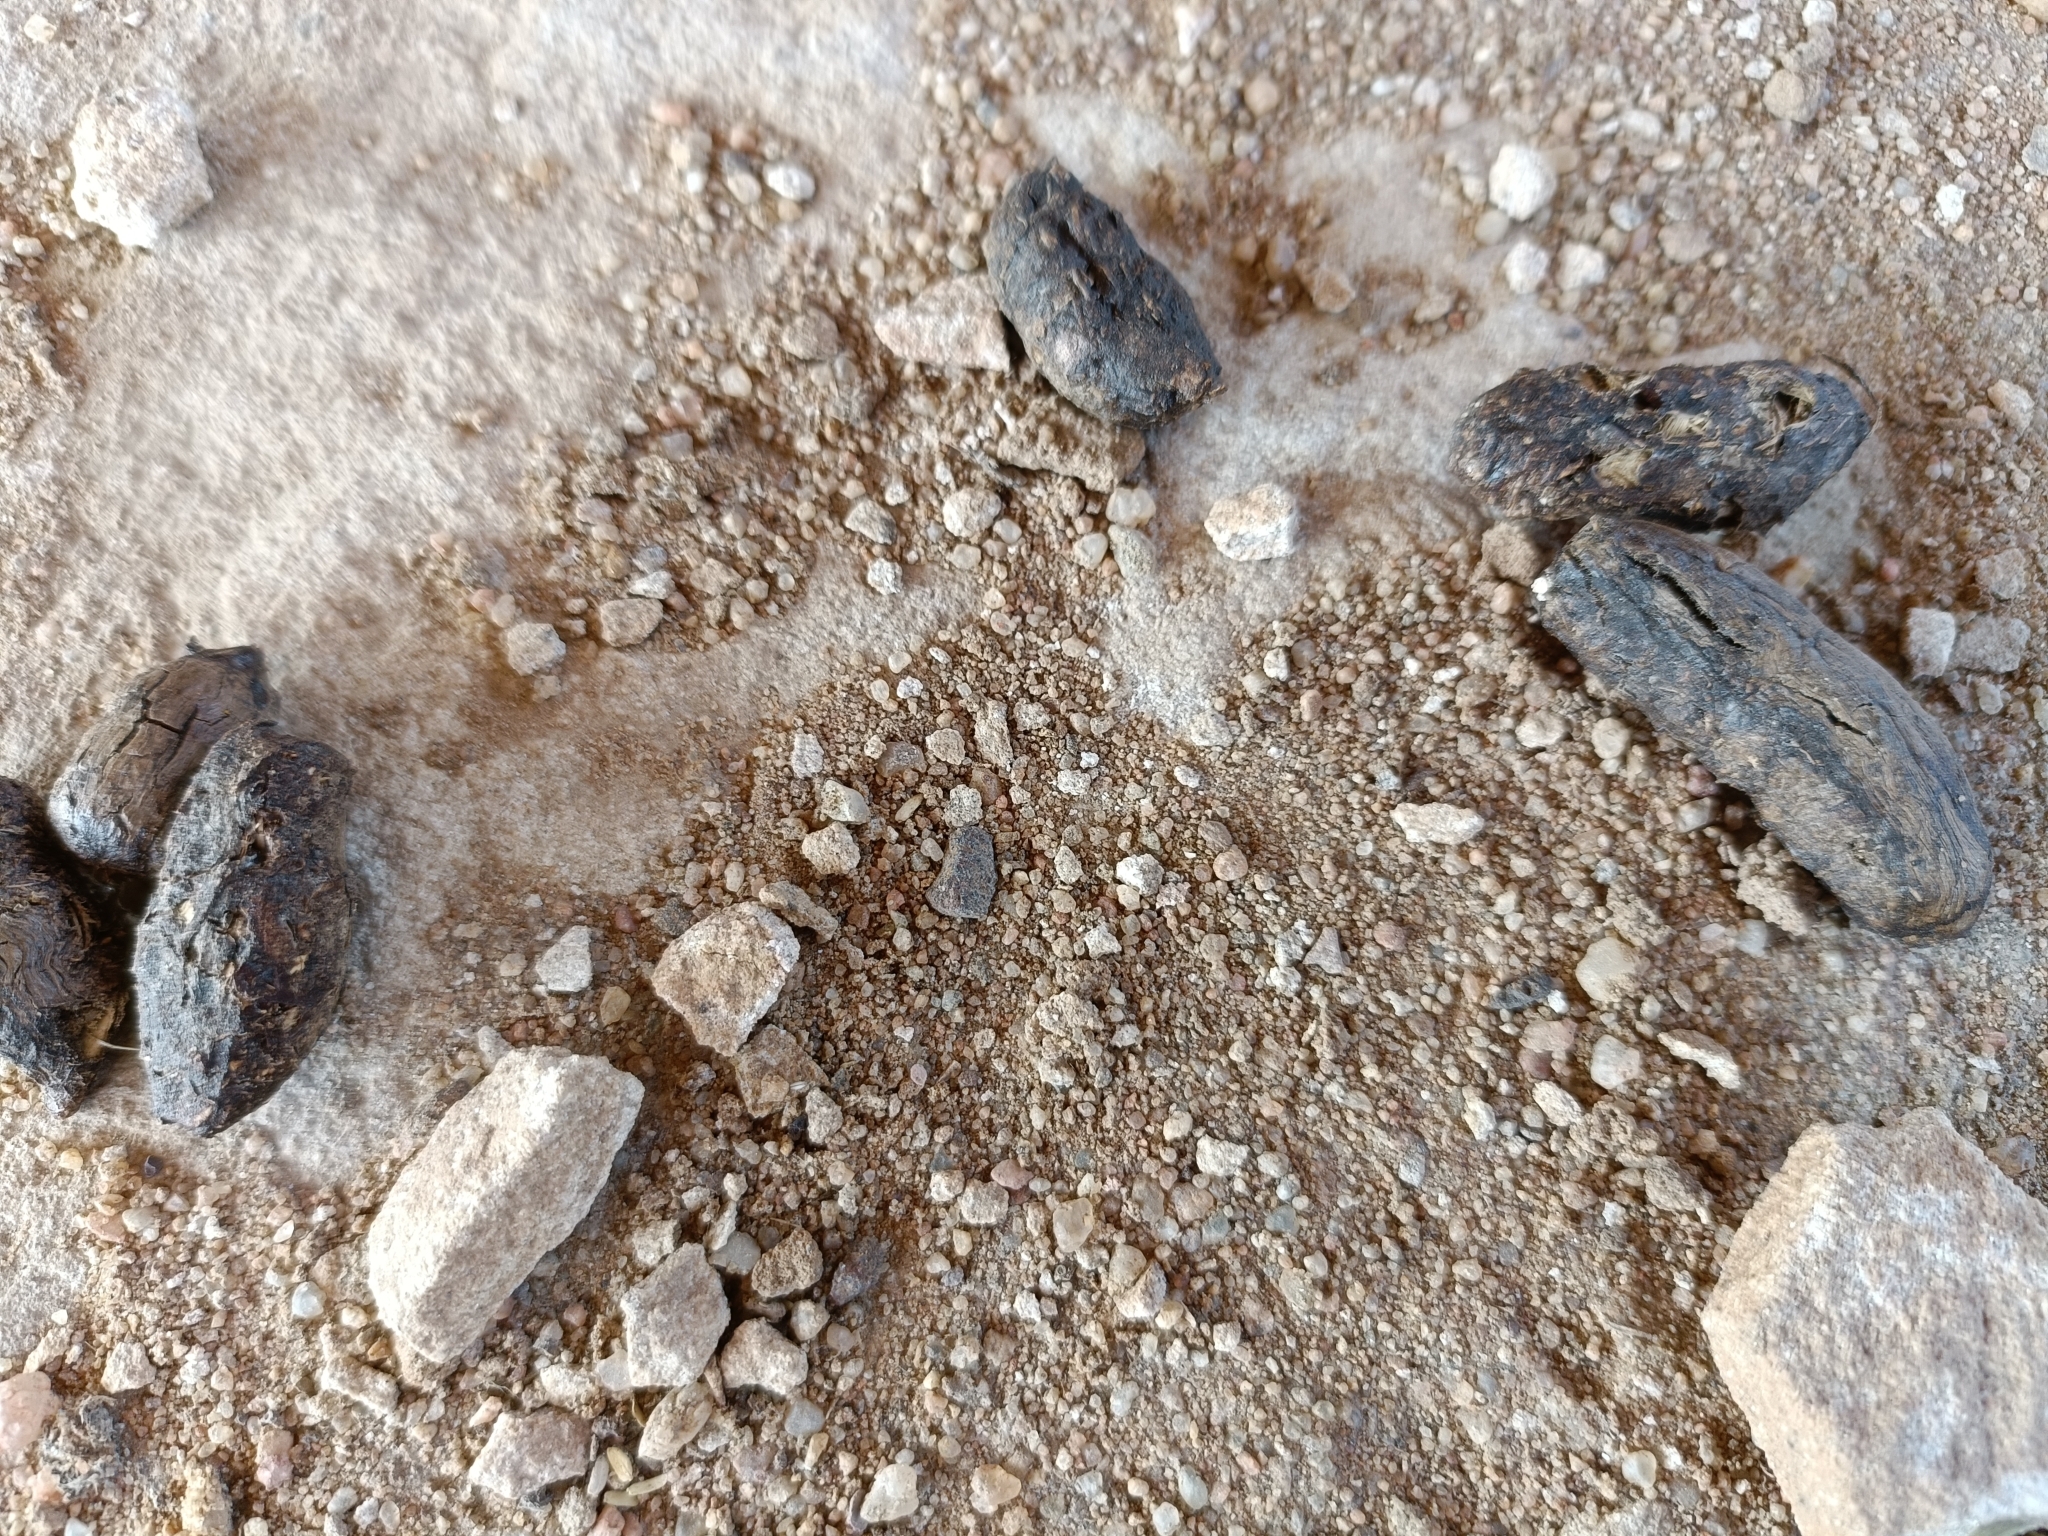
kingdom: Animalia
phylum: Chordata
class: Mammalia
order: Rodentia
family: Hystricidae
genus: Hystrix
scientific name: Hystrix indica
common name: Indian crested porcupine
